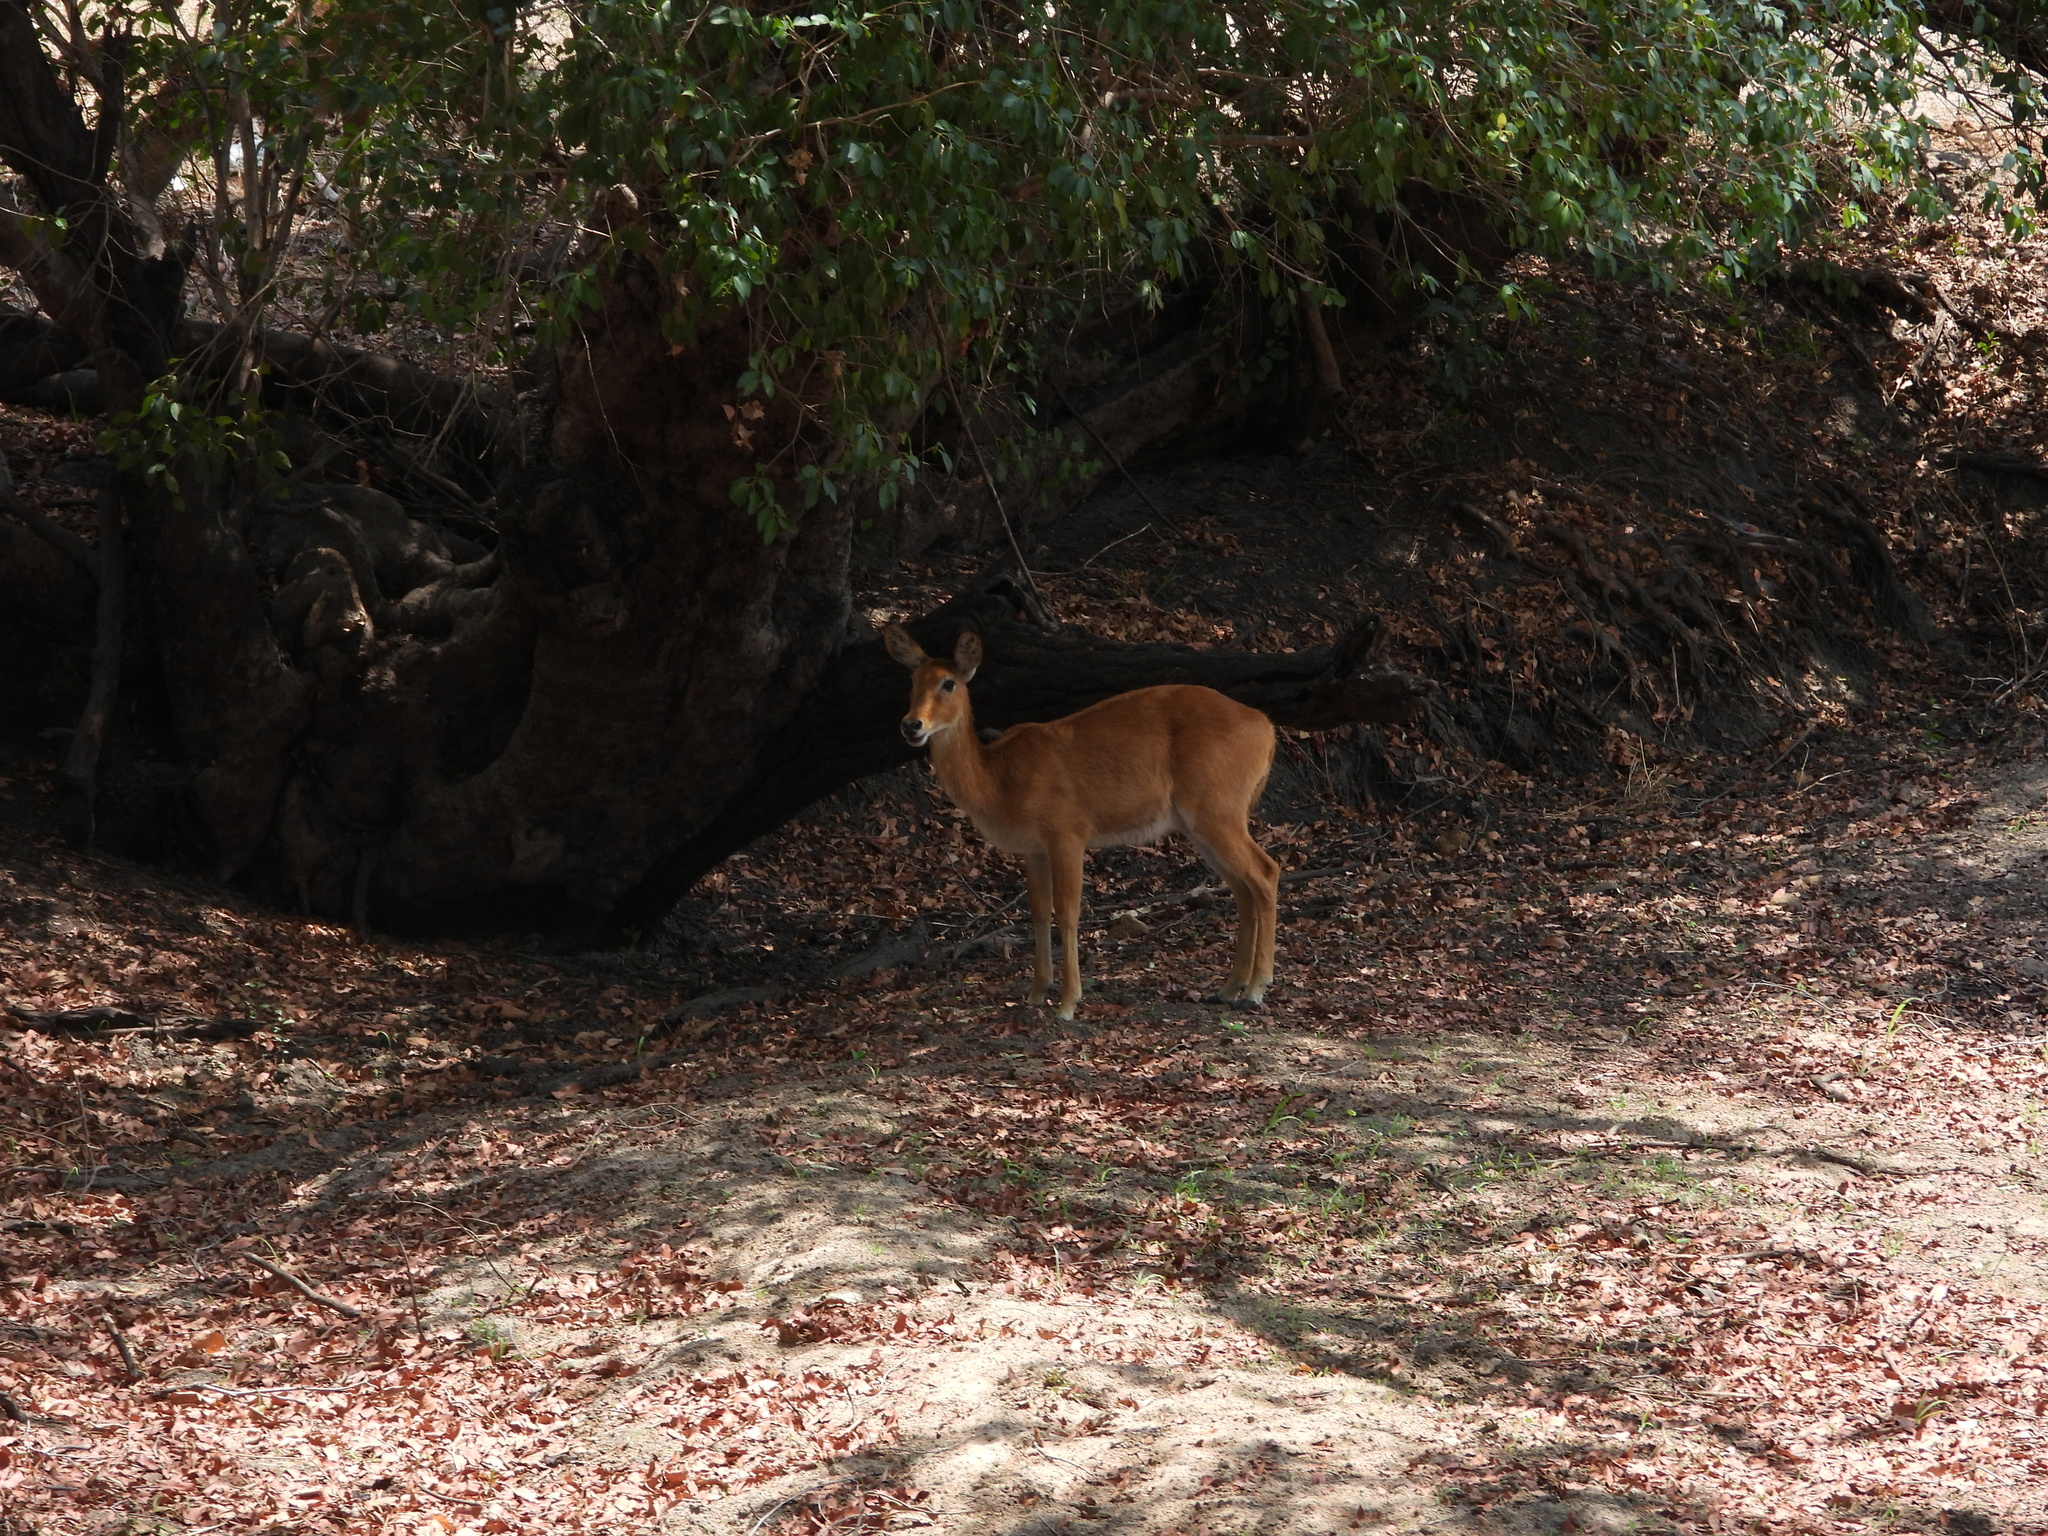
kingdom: Animalia
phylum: Chordata
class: Mammalia
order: Artiodactyla
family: Bovidae
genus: Kobus
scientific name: Kobus vardonii
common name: Puku
